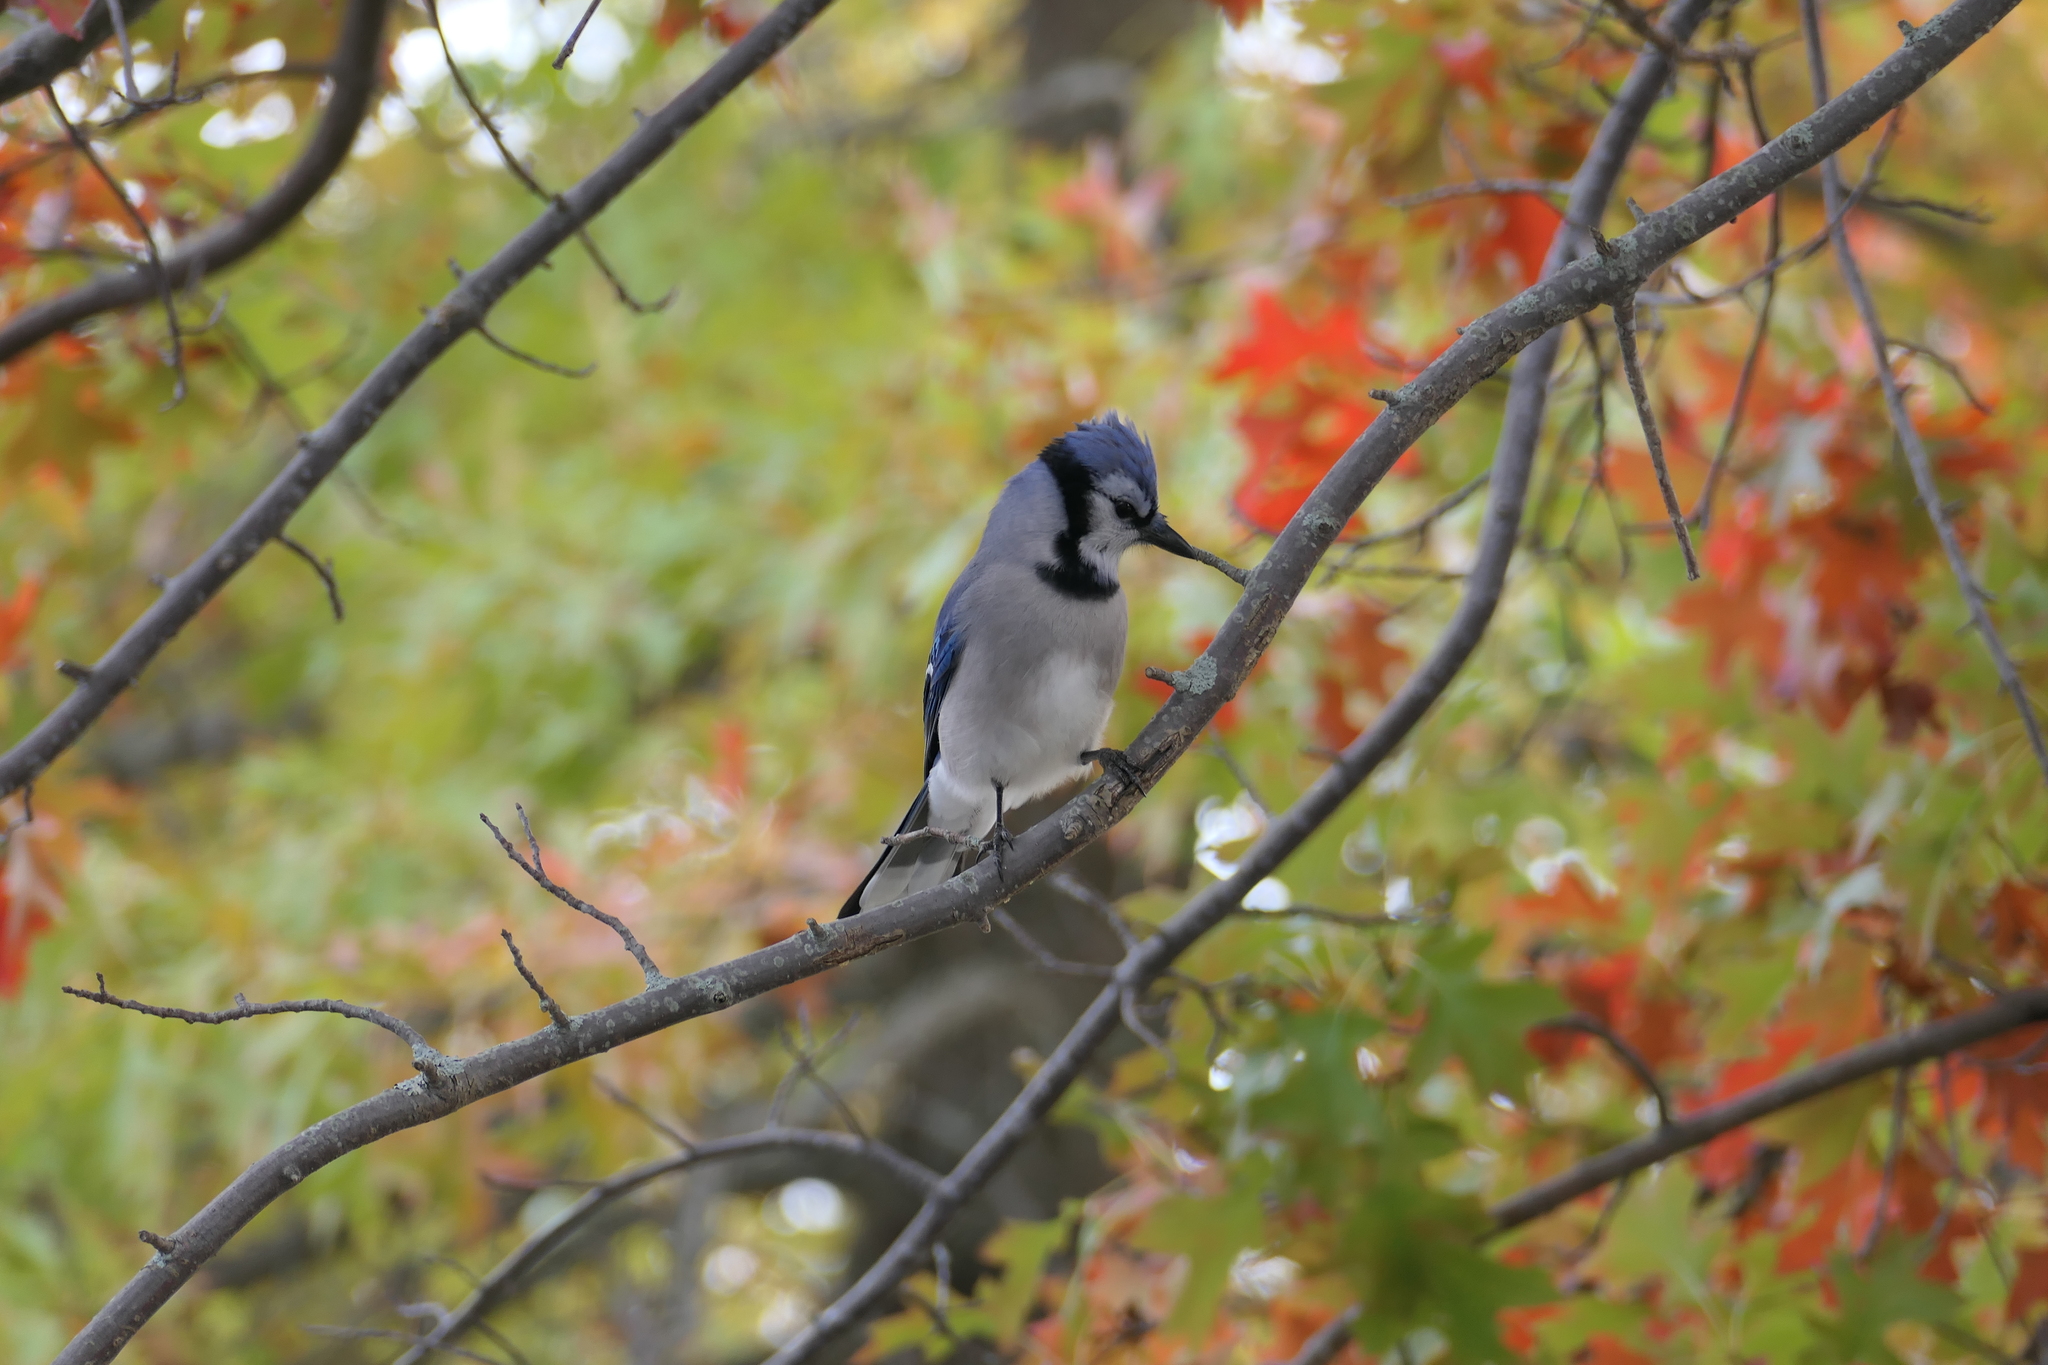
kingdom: Animalia
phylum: Chordata
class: Aves
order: Passeriformes
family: Corvidae
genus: Cyanocitta
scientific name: Cyanocitta cristata
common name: Blue jay
